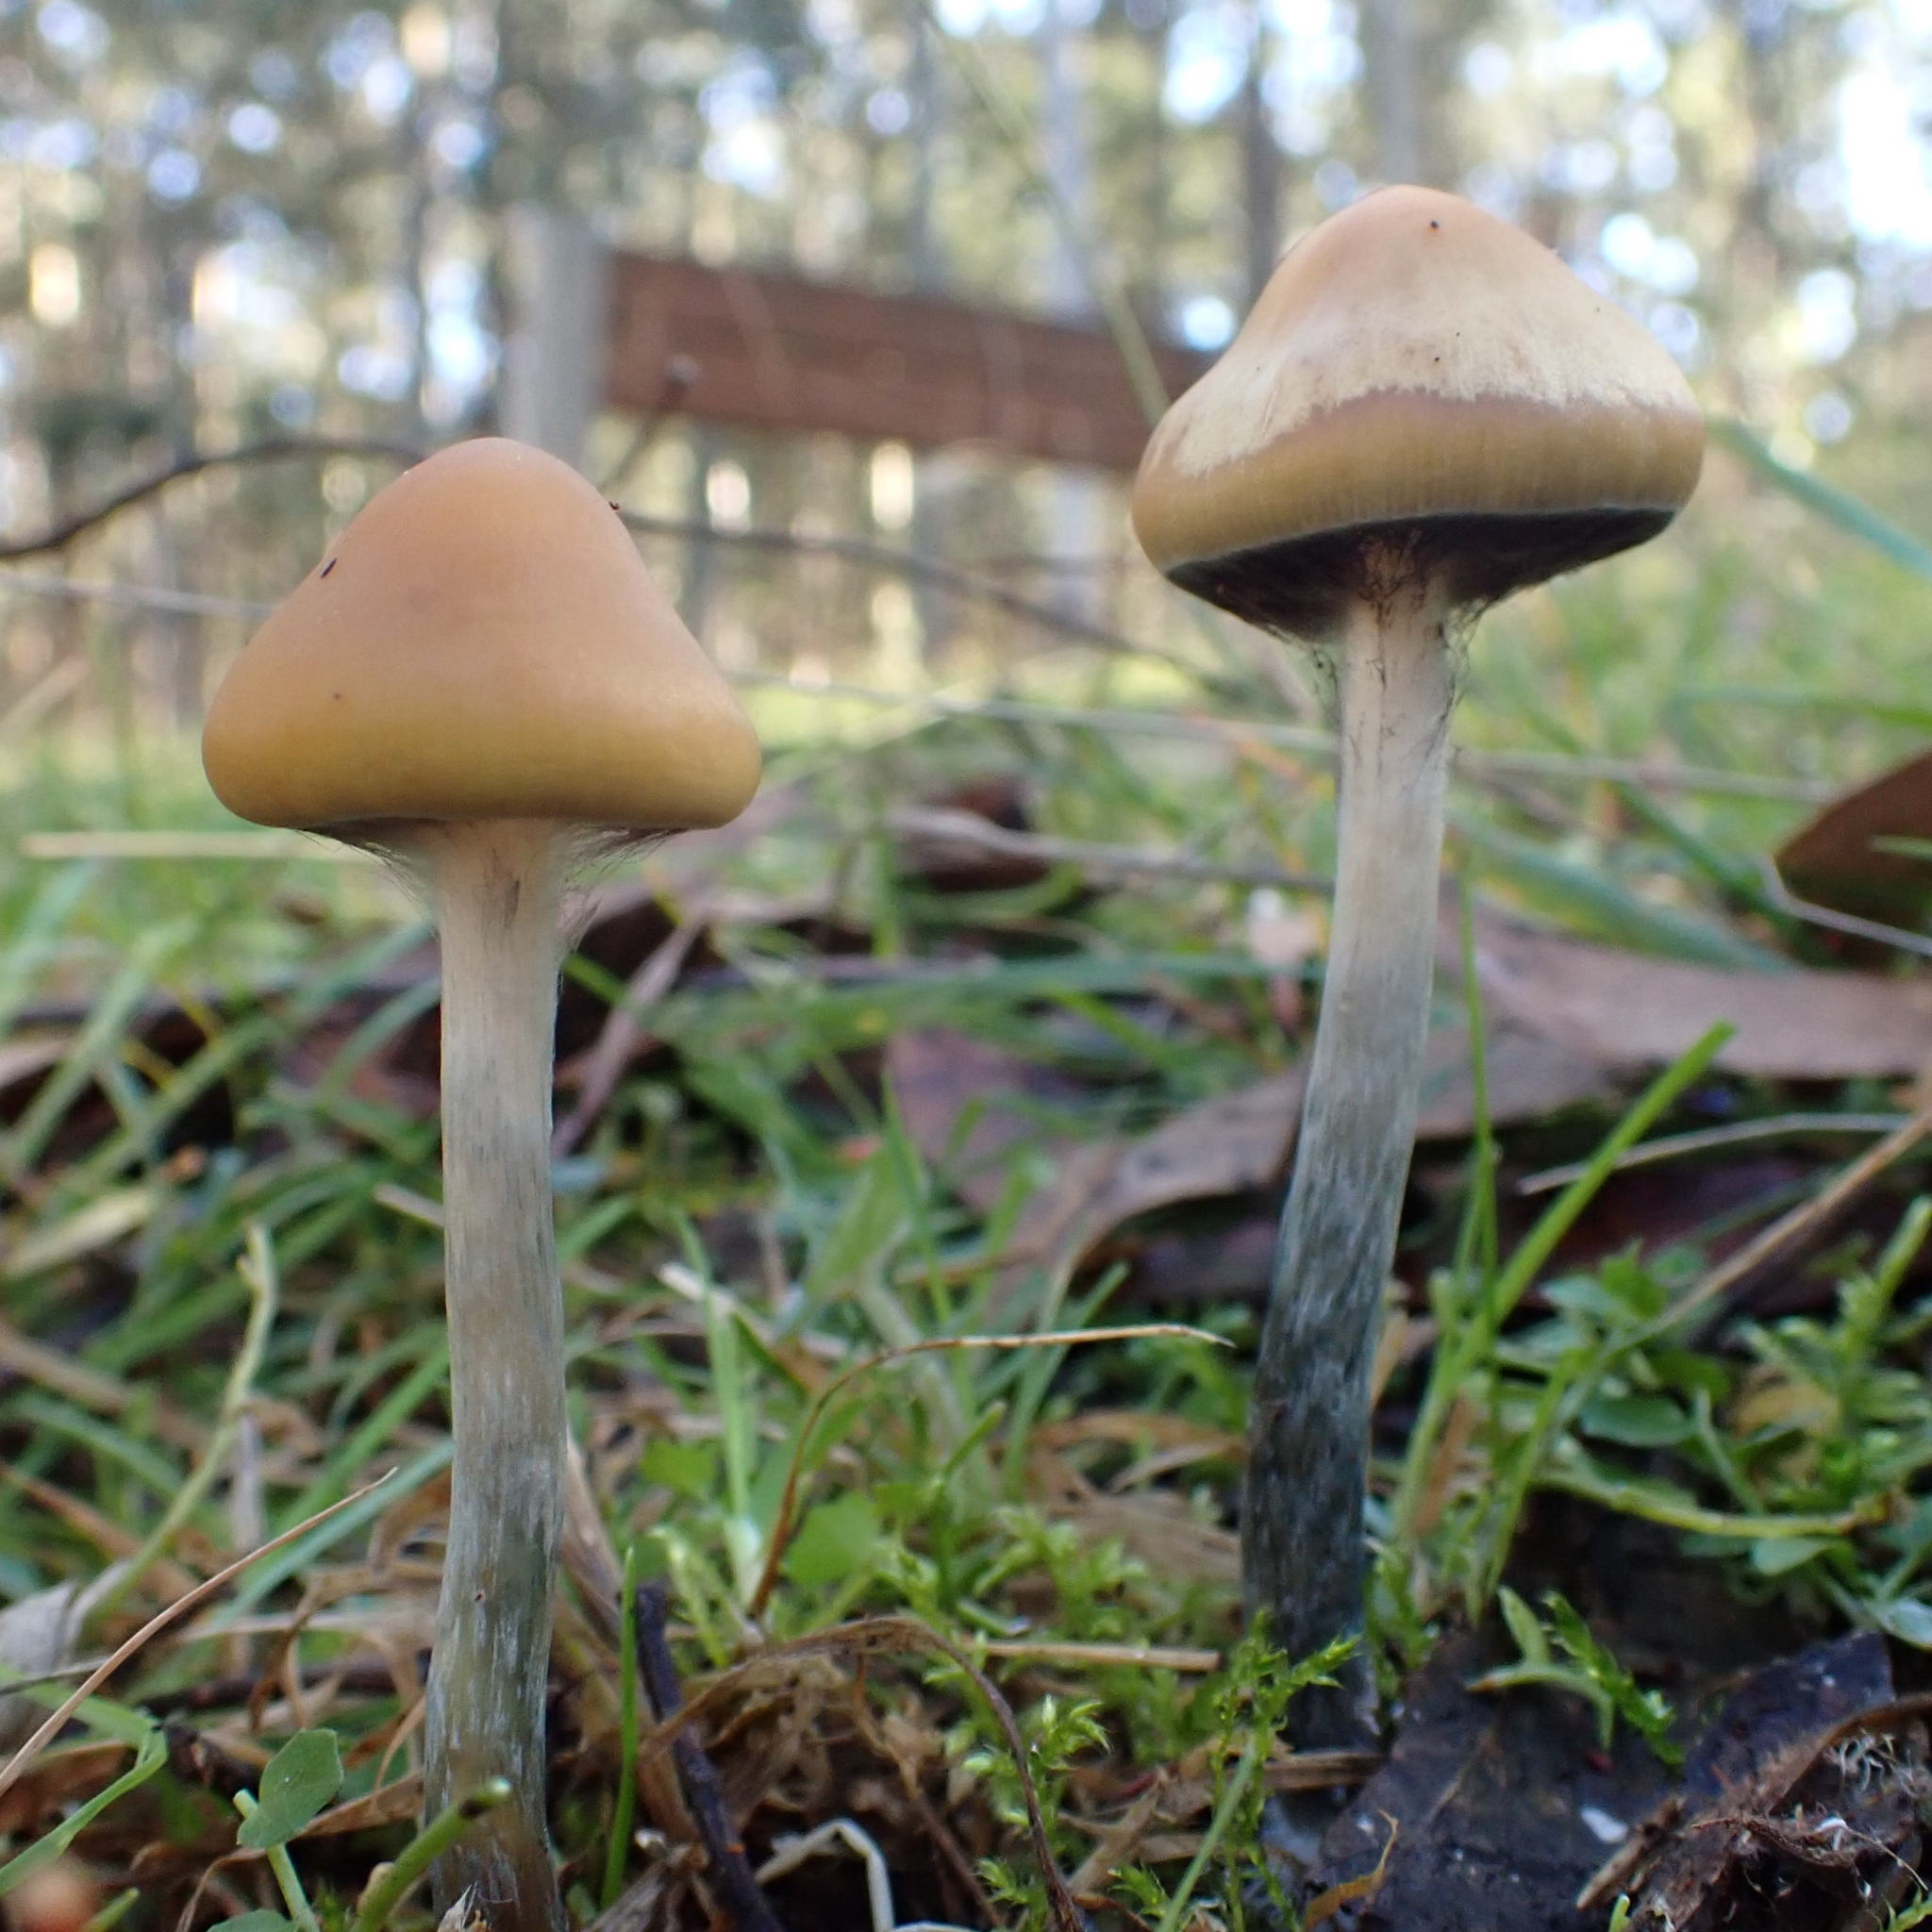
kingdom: Fungi
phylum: Basidiomycota
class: Agaricomycetes
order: Agaricales
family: Hymenogastraceae
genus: Psilocybe
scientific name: Psilocybe subaeruginosa
